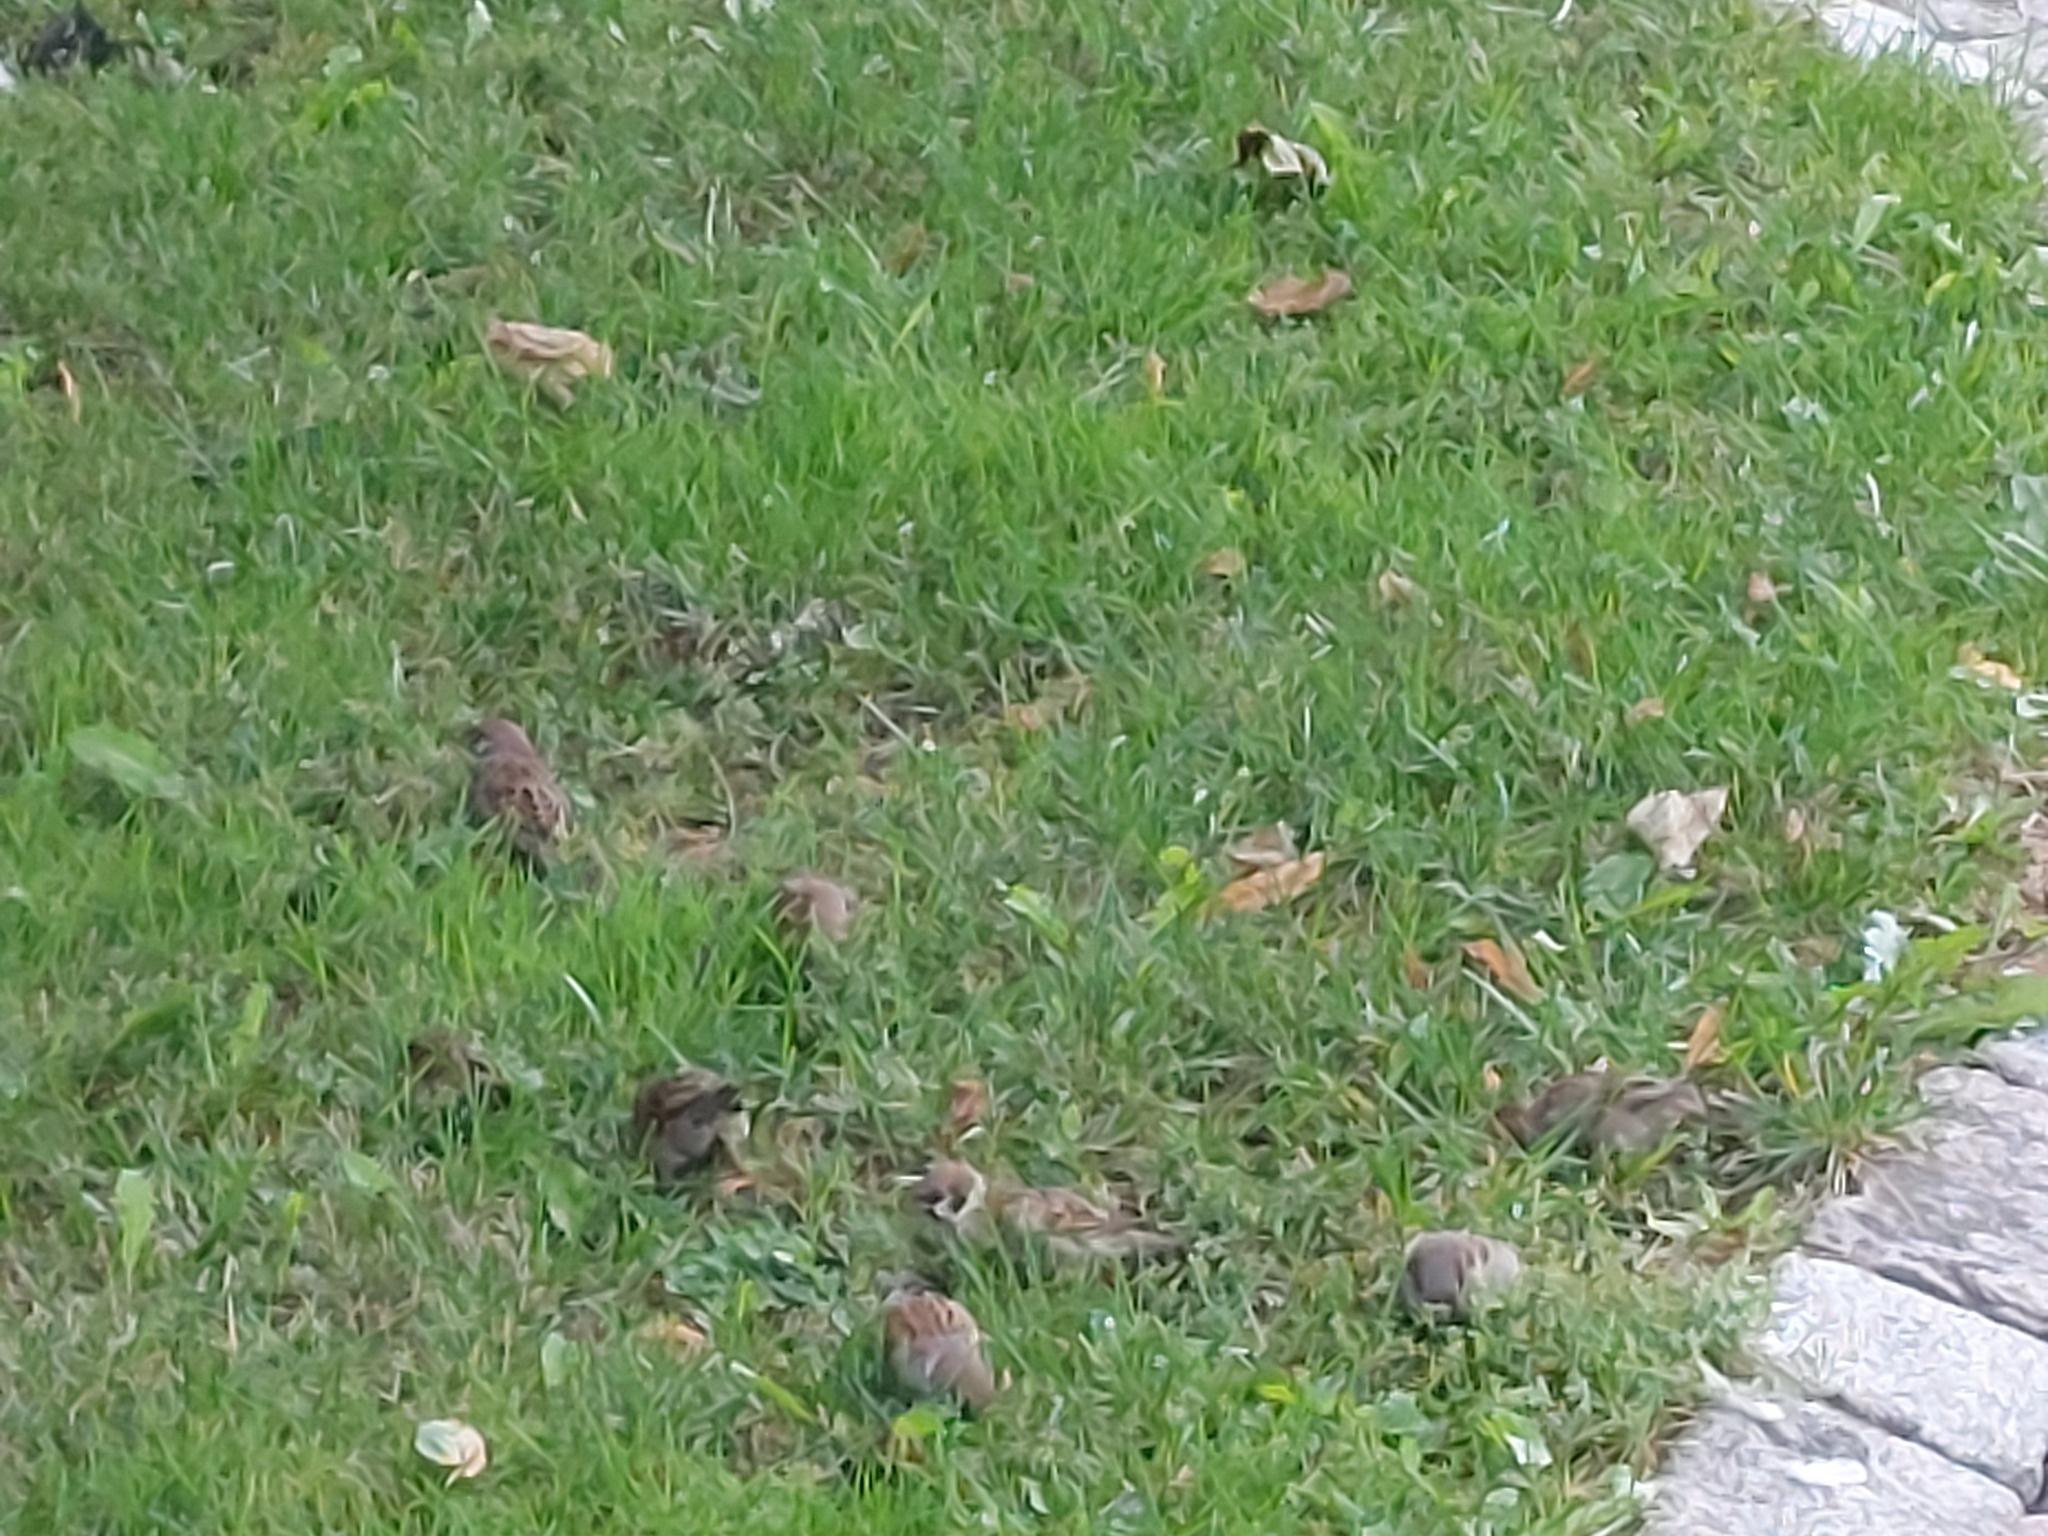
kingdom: Animalia
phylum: Chordata
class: Aves
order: Passeriformes
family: Passeridae
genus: Passer
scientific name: Passer montanus
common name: Eurasian tree sparrow
